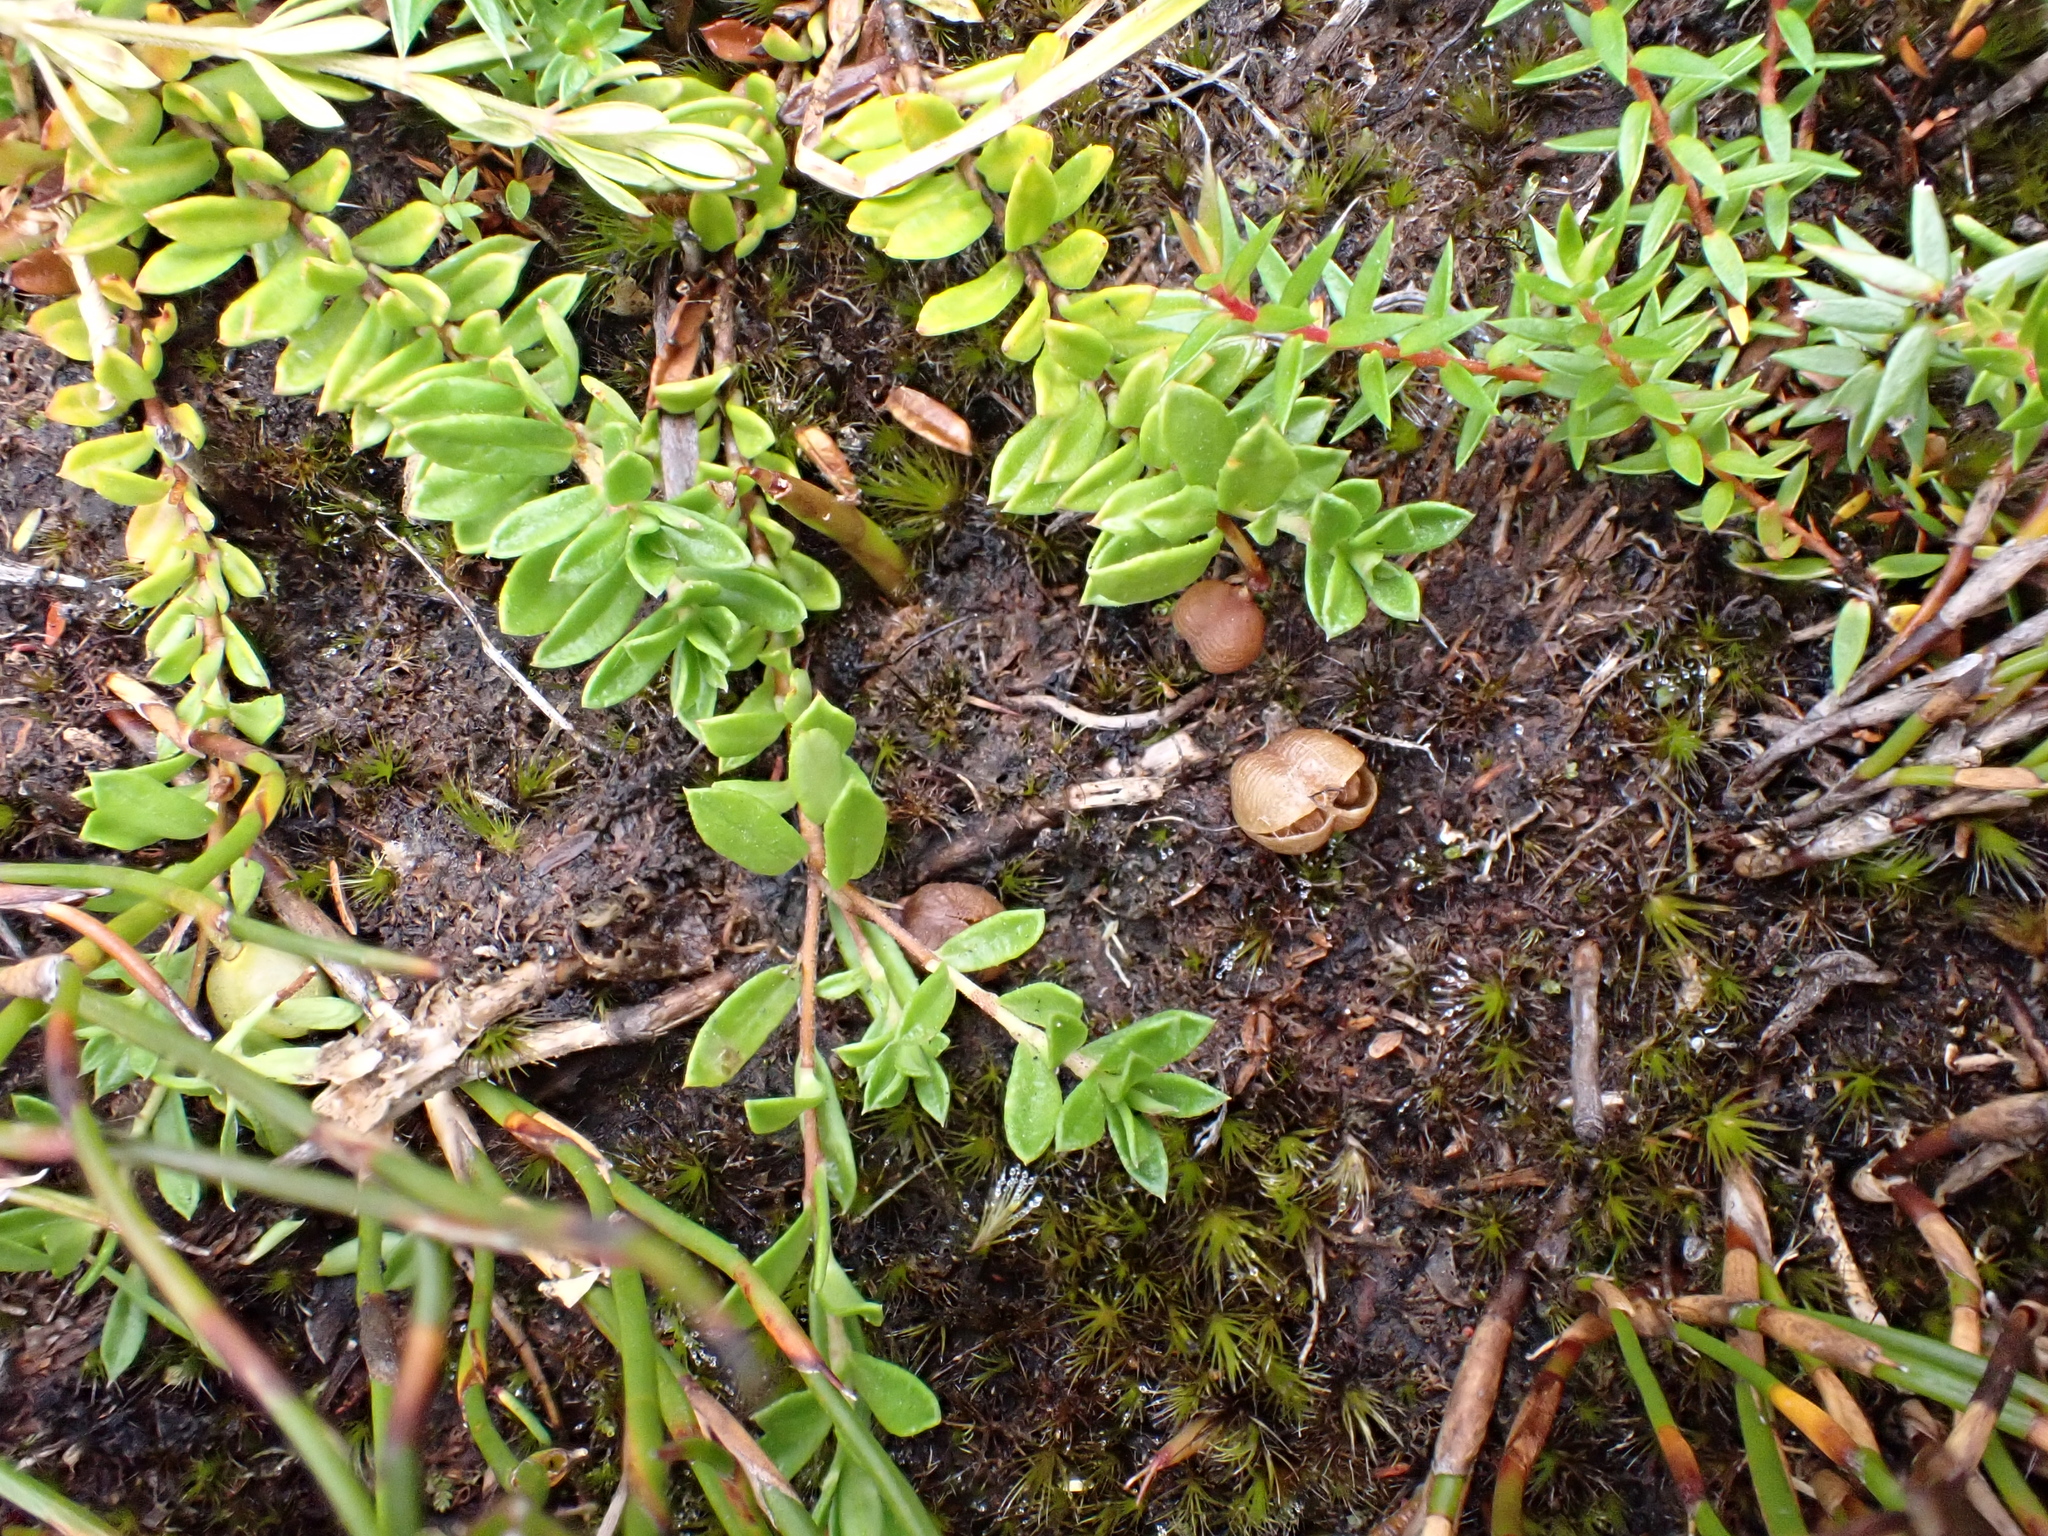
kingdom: Plantae
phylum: Tracheophyta
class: Magnoliopsida
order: Apiales
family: Pittosporaceae
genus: Rhytidosporum
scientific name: Rhytidosporum inconspicuum
